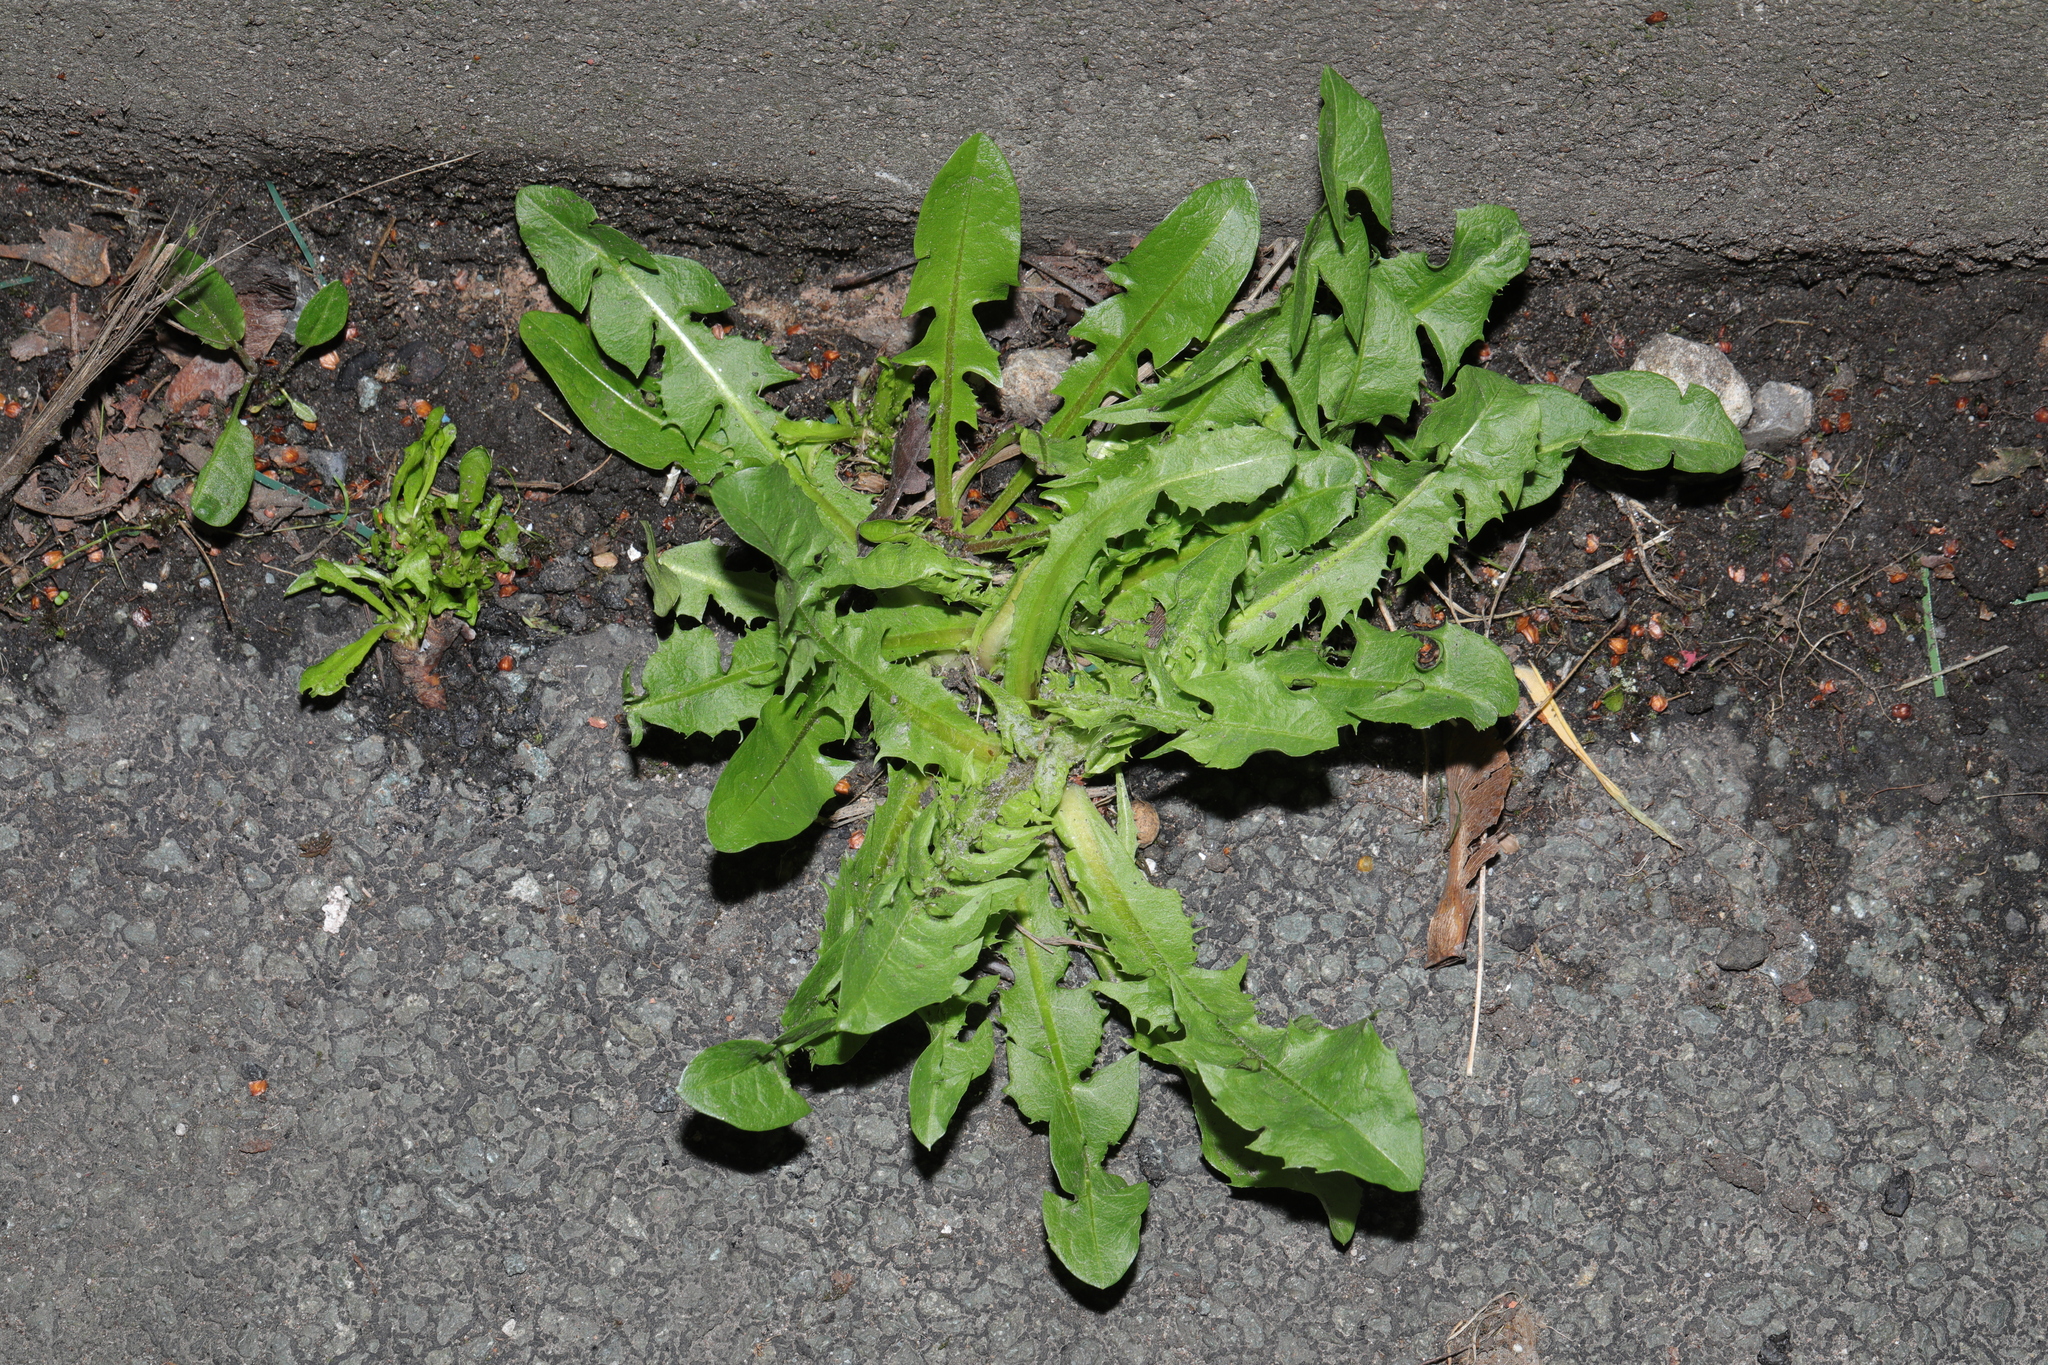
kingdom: Plantae
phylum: Tracheophyta
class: Magnoliopsida
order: Asterales
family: Asteraceae
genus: Taraxacum
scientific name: Taraxacum officinale
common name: Common dandelion
